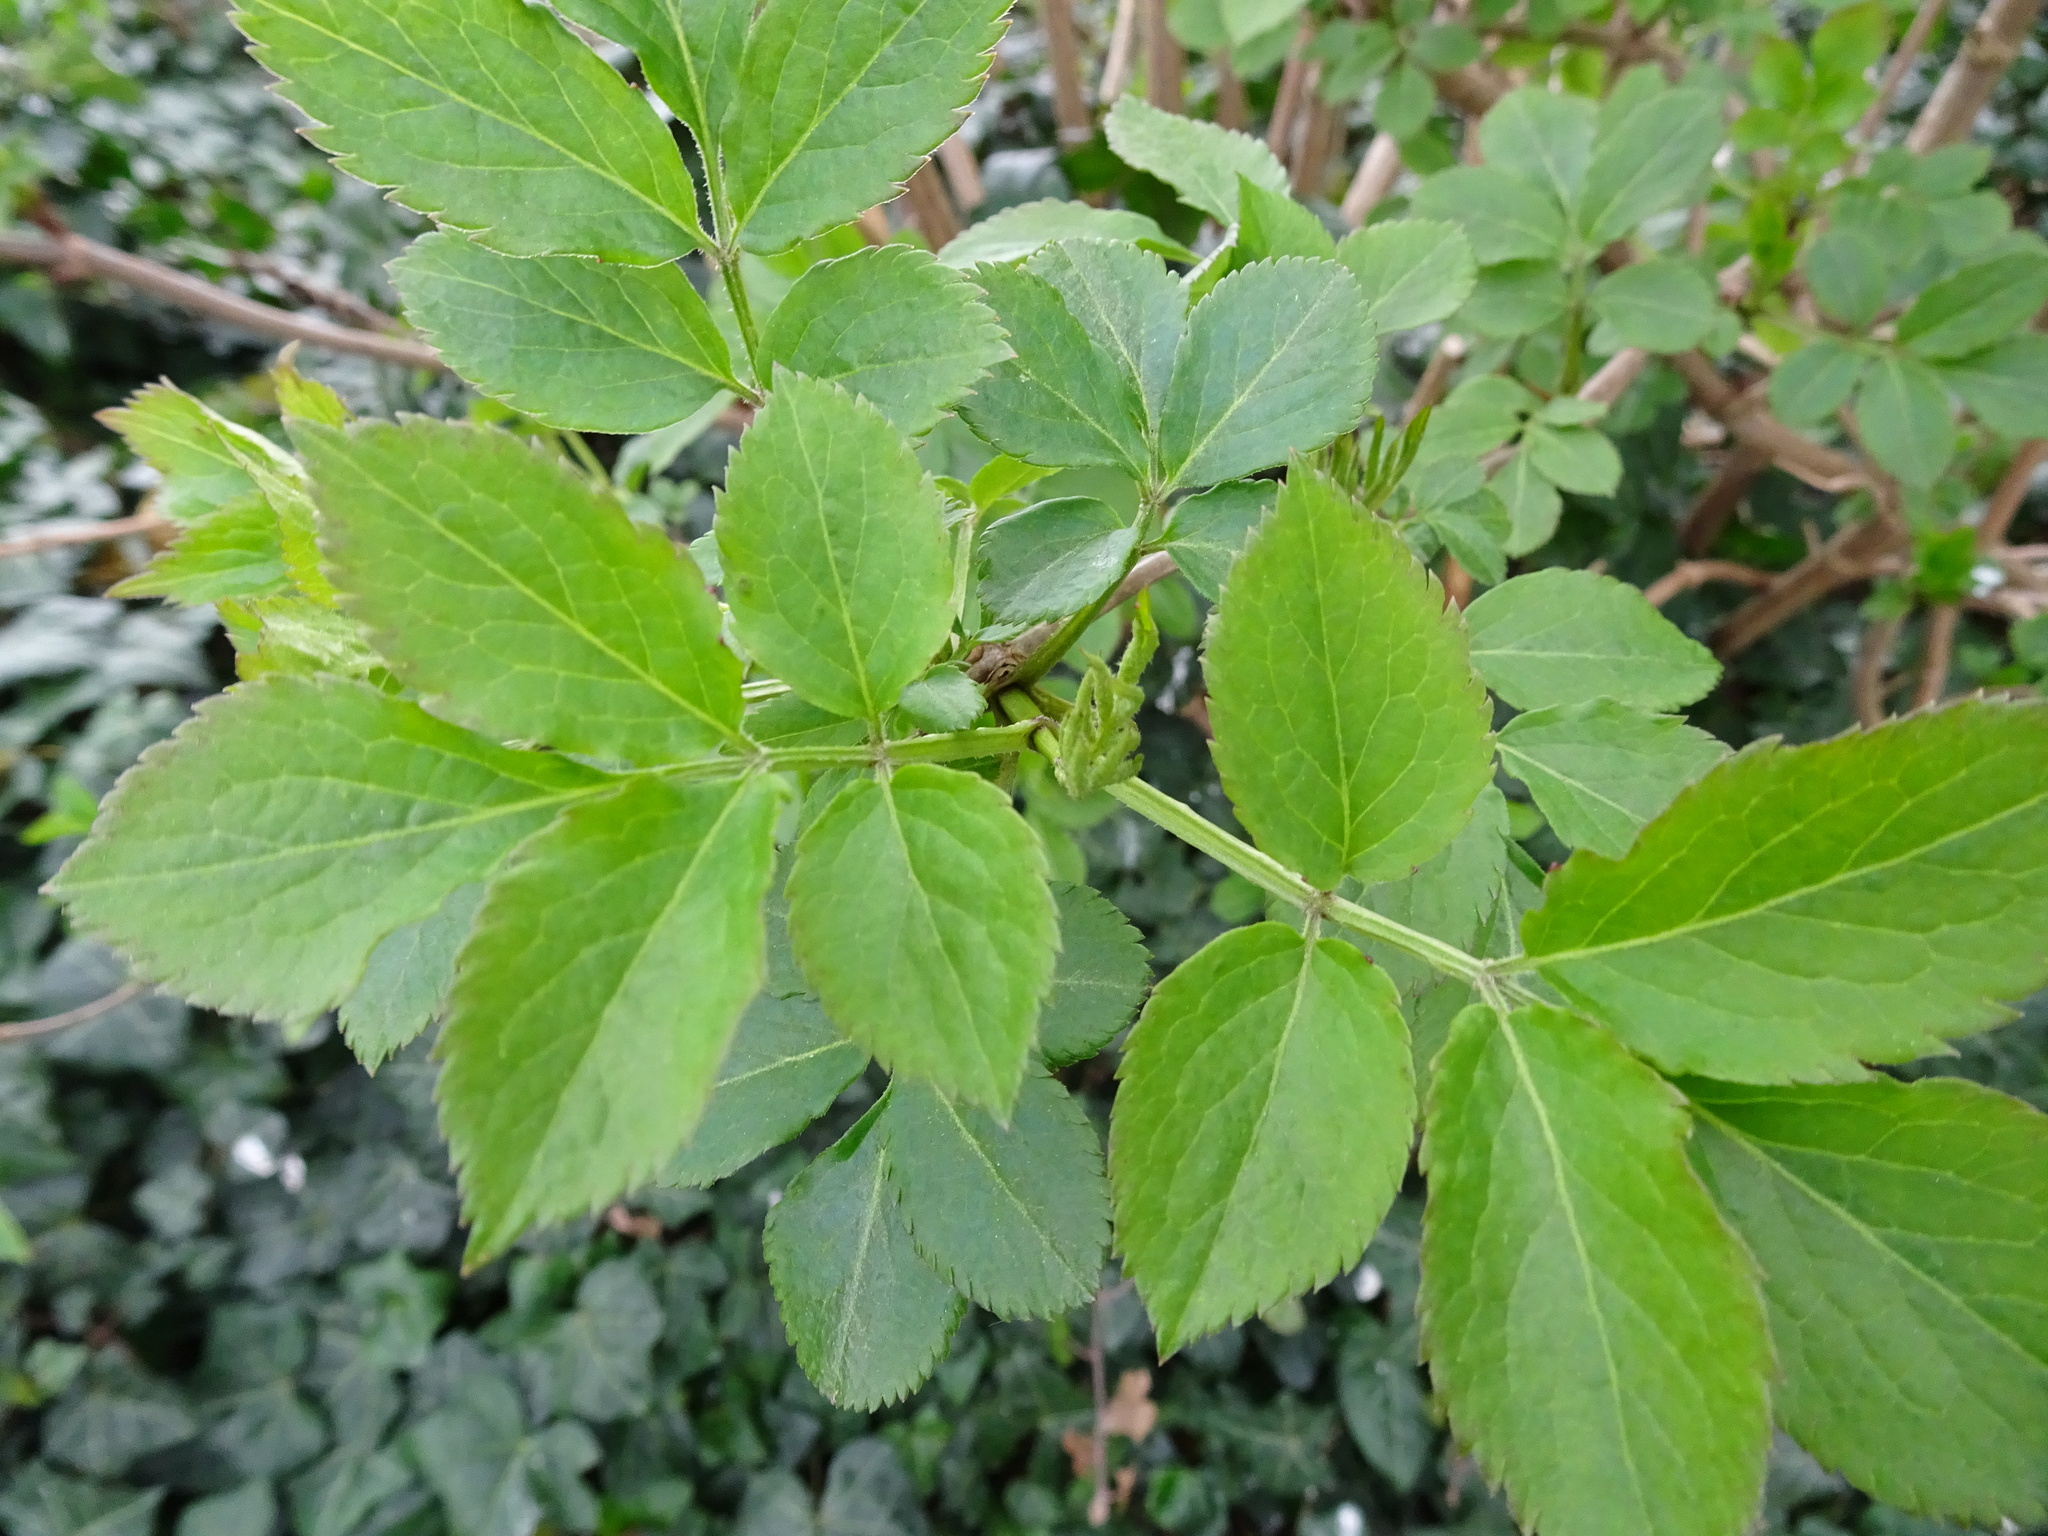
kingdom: Plantae
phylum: Tracheophyta
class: Magnoliopsida
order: Dipsacales
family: Viburnaceae
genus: Sambucus
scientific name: Sambucus nigra
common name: Elder
